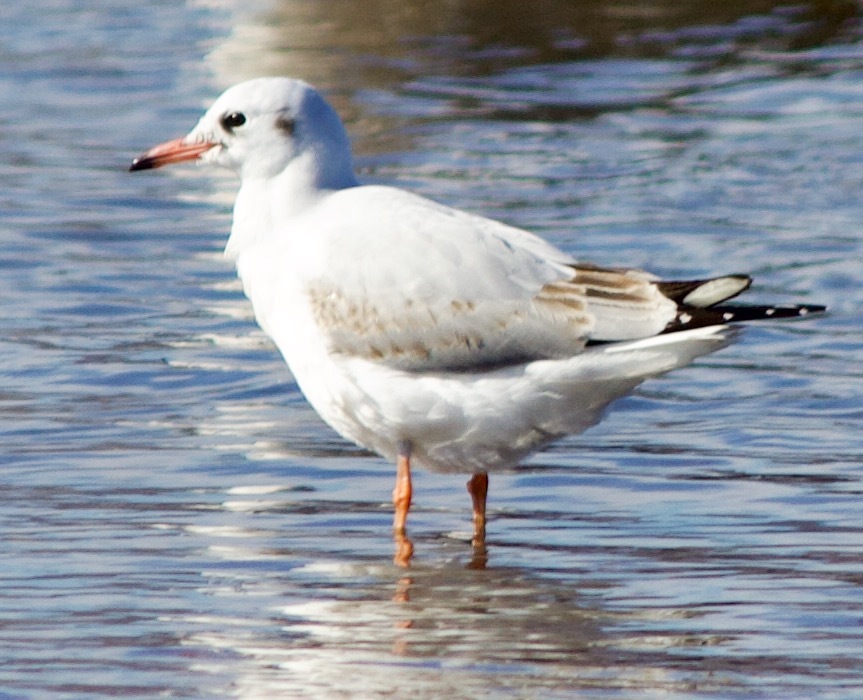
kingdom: Animalia
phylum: Chordata
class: Aves
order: Charadriiformes
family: Laridae
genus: Chroicocephalus
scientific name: Chroicocephalus maculipennis
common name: Brown-hooded gull
